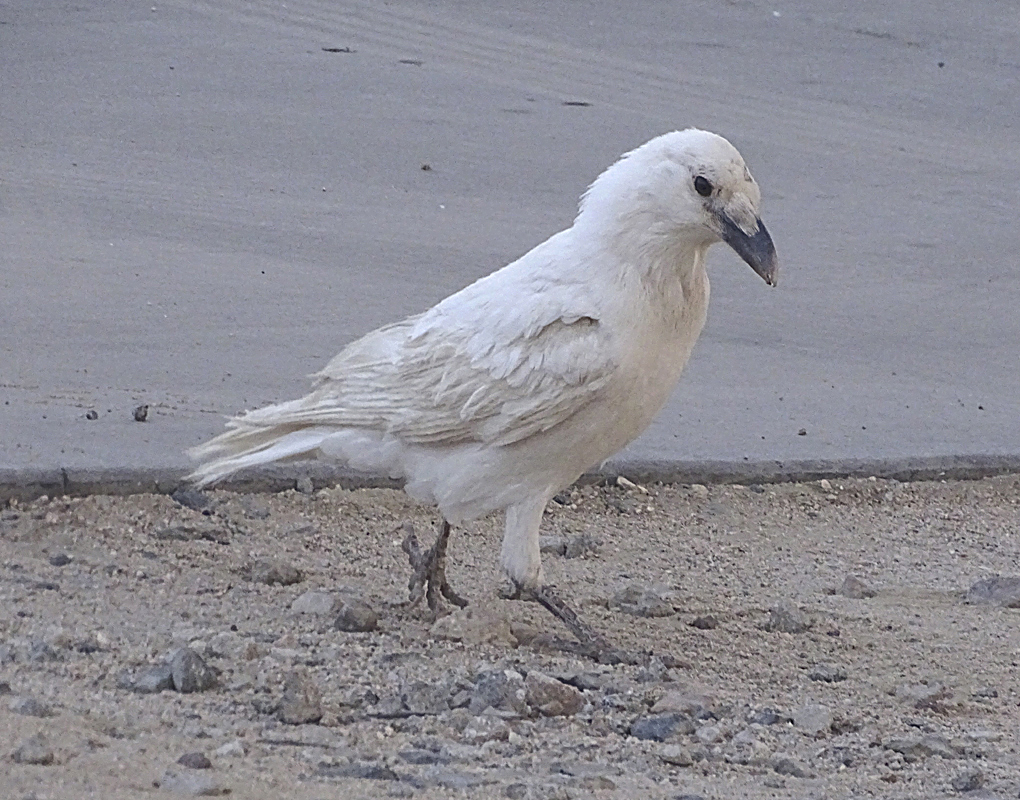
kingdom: Animalia
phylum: Chordata
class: Aves
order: Passeriformes
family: Corvidae
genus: Corvus
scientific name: Corvus corax
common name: Common raven
